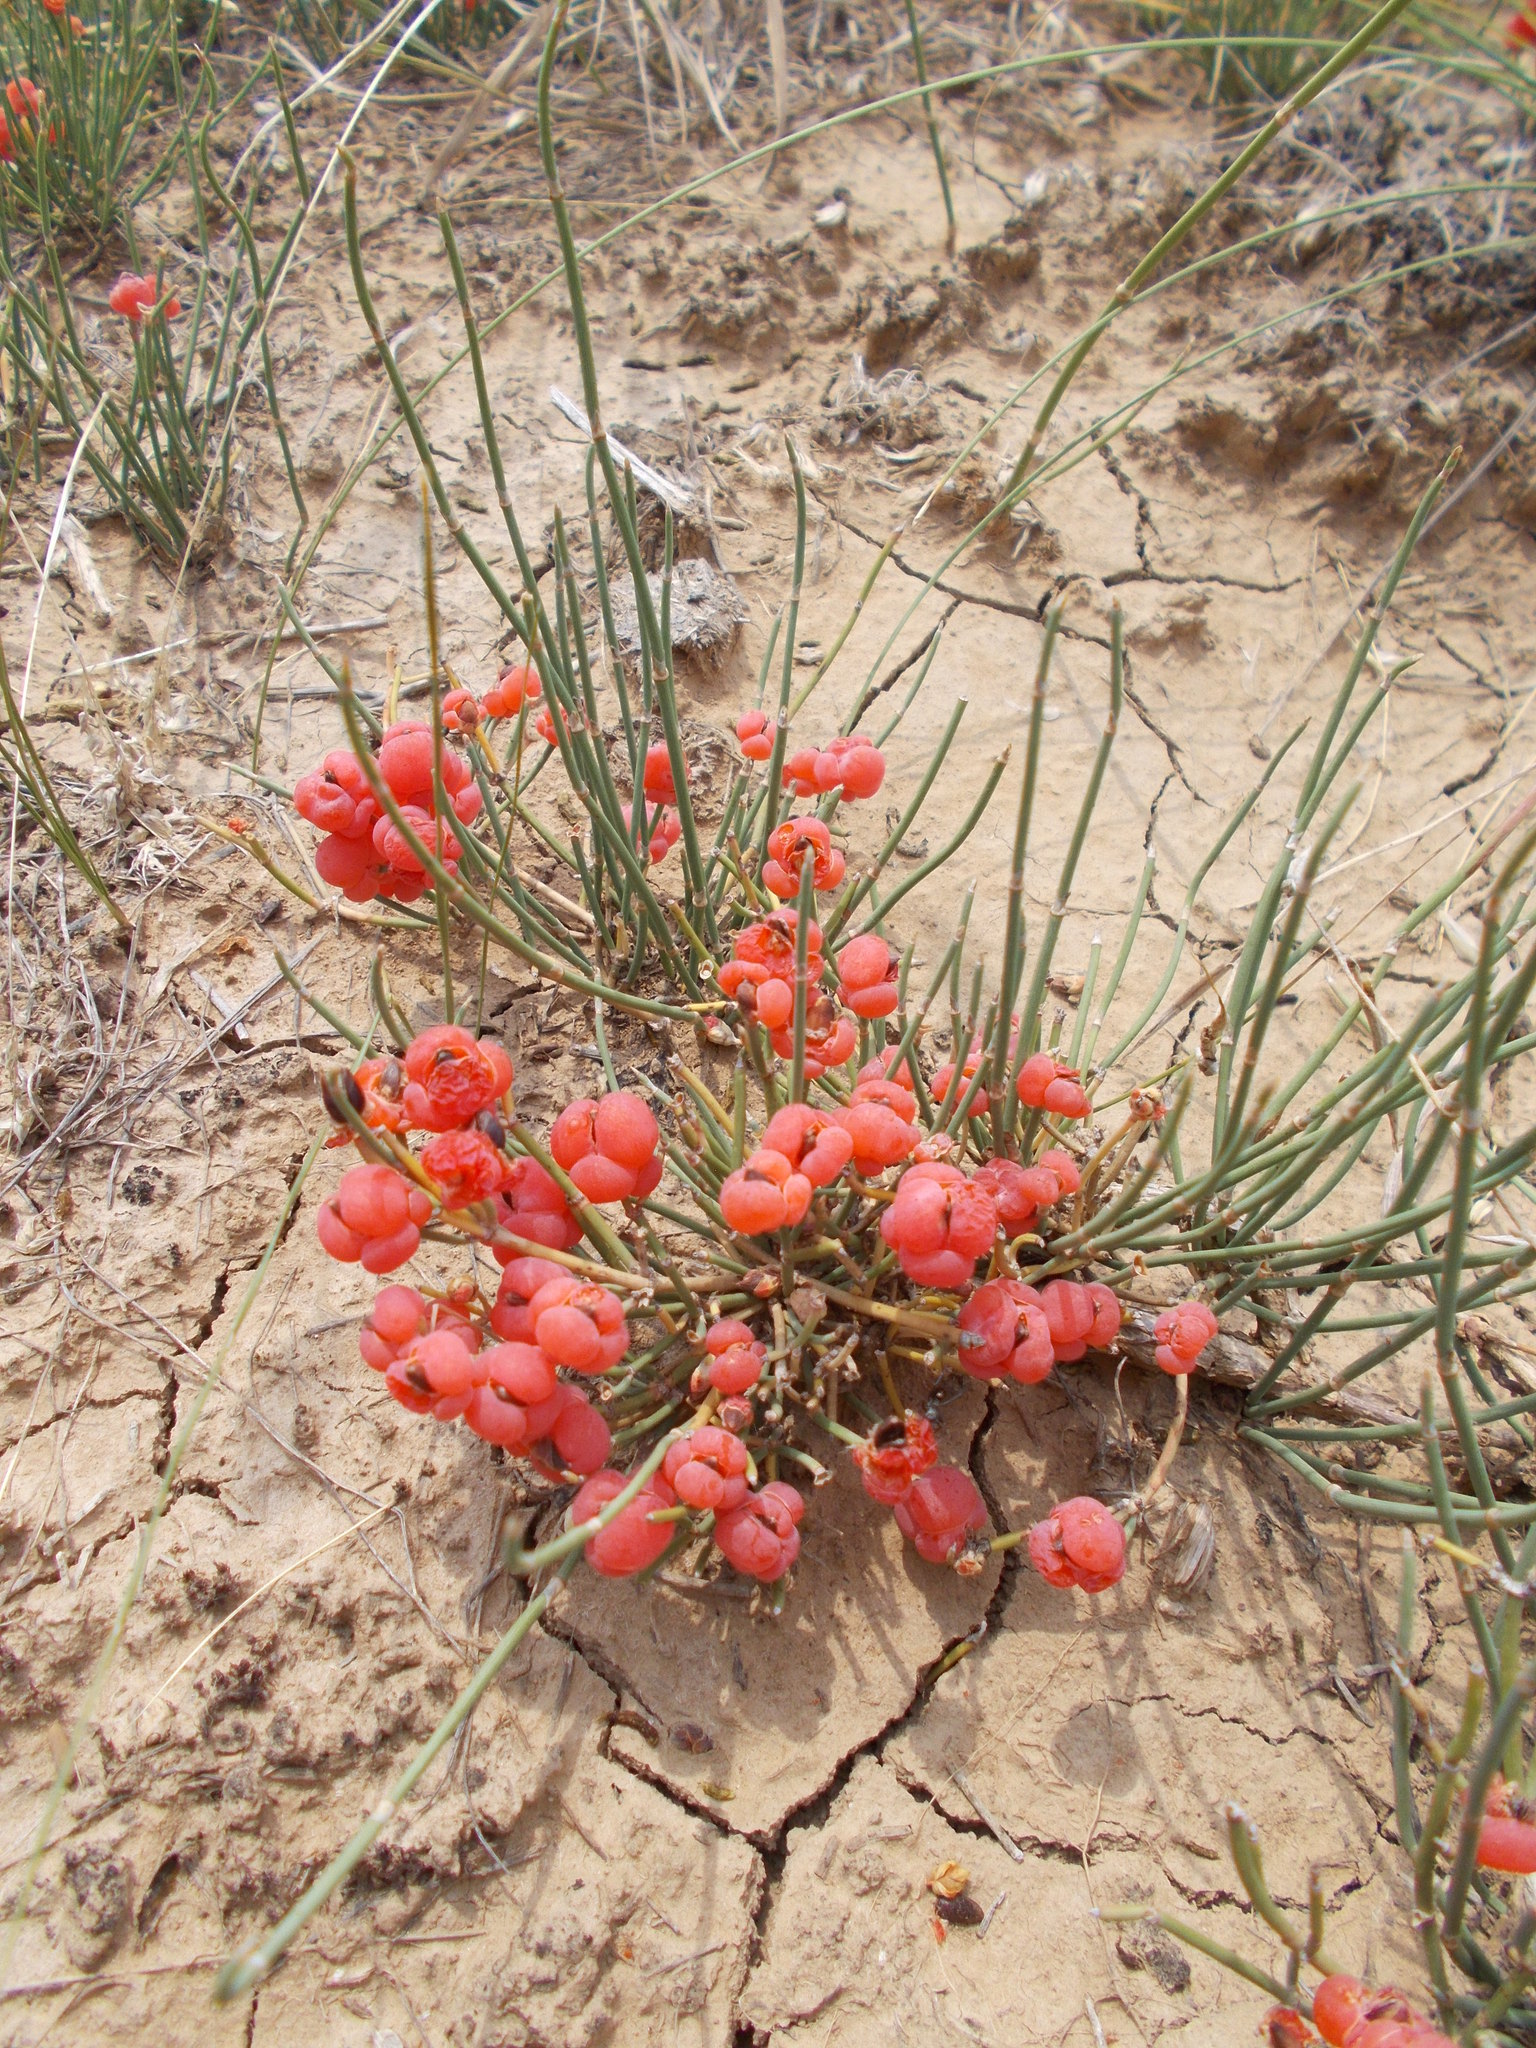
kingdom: Plantae
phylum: Tracheophyta
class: Gnetopsida
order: Ephedrales
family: Ephedraceae
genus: Ephedra
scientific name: Ephedra distachya
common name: Sea grape
